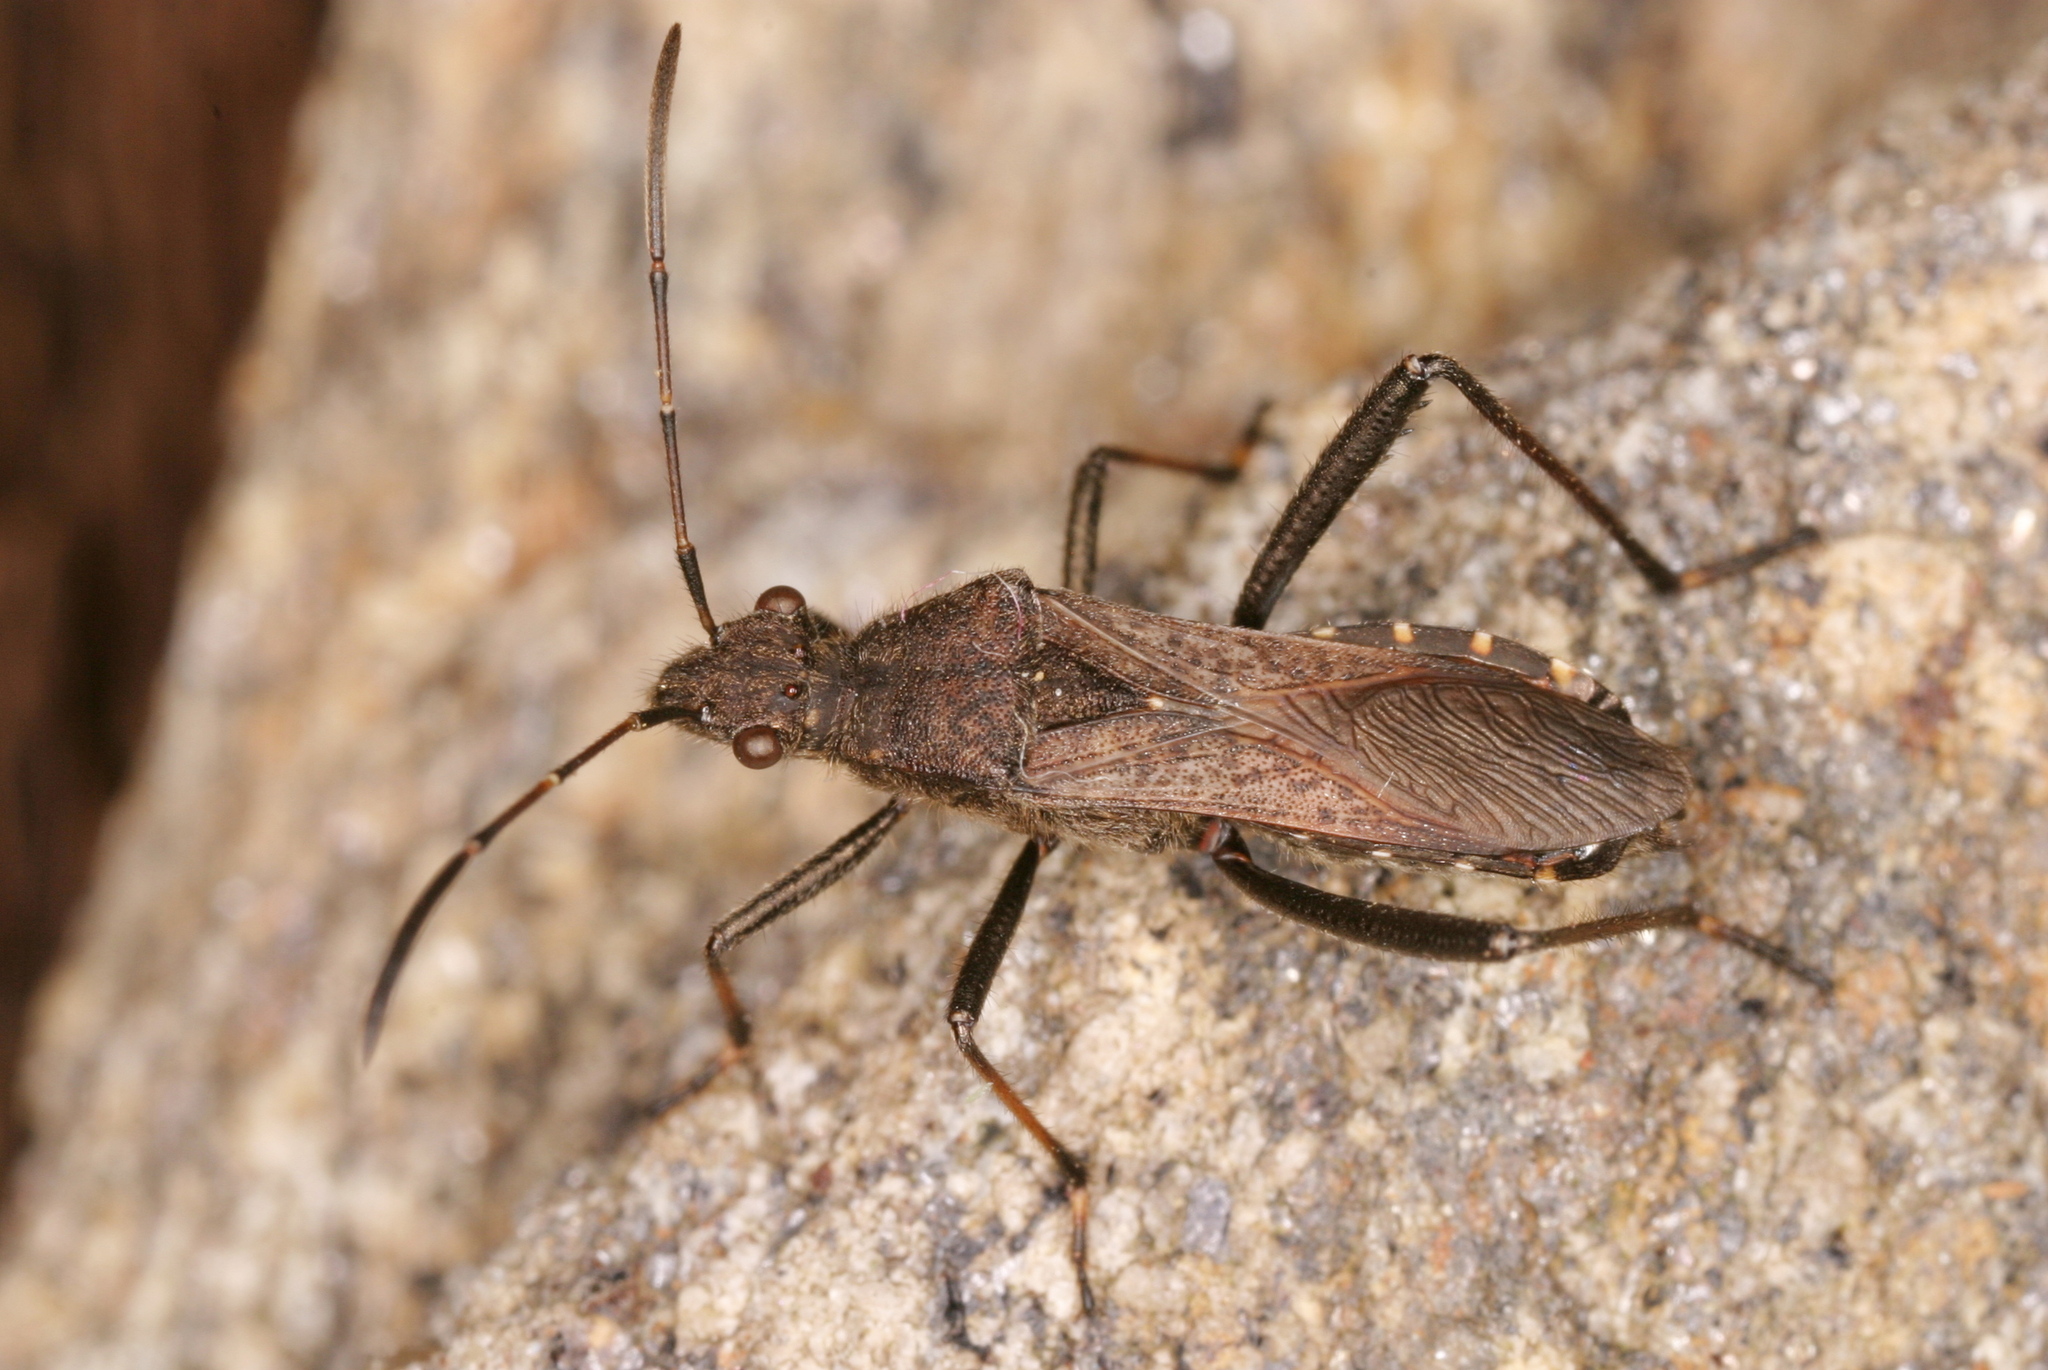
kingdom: Animalia
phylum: Arthropoda
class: Insecta
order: Hemiptera
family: Alydidae
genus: Alydus
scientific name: Alydus calcaratus
